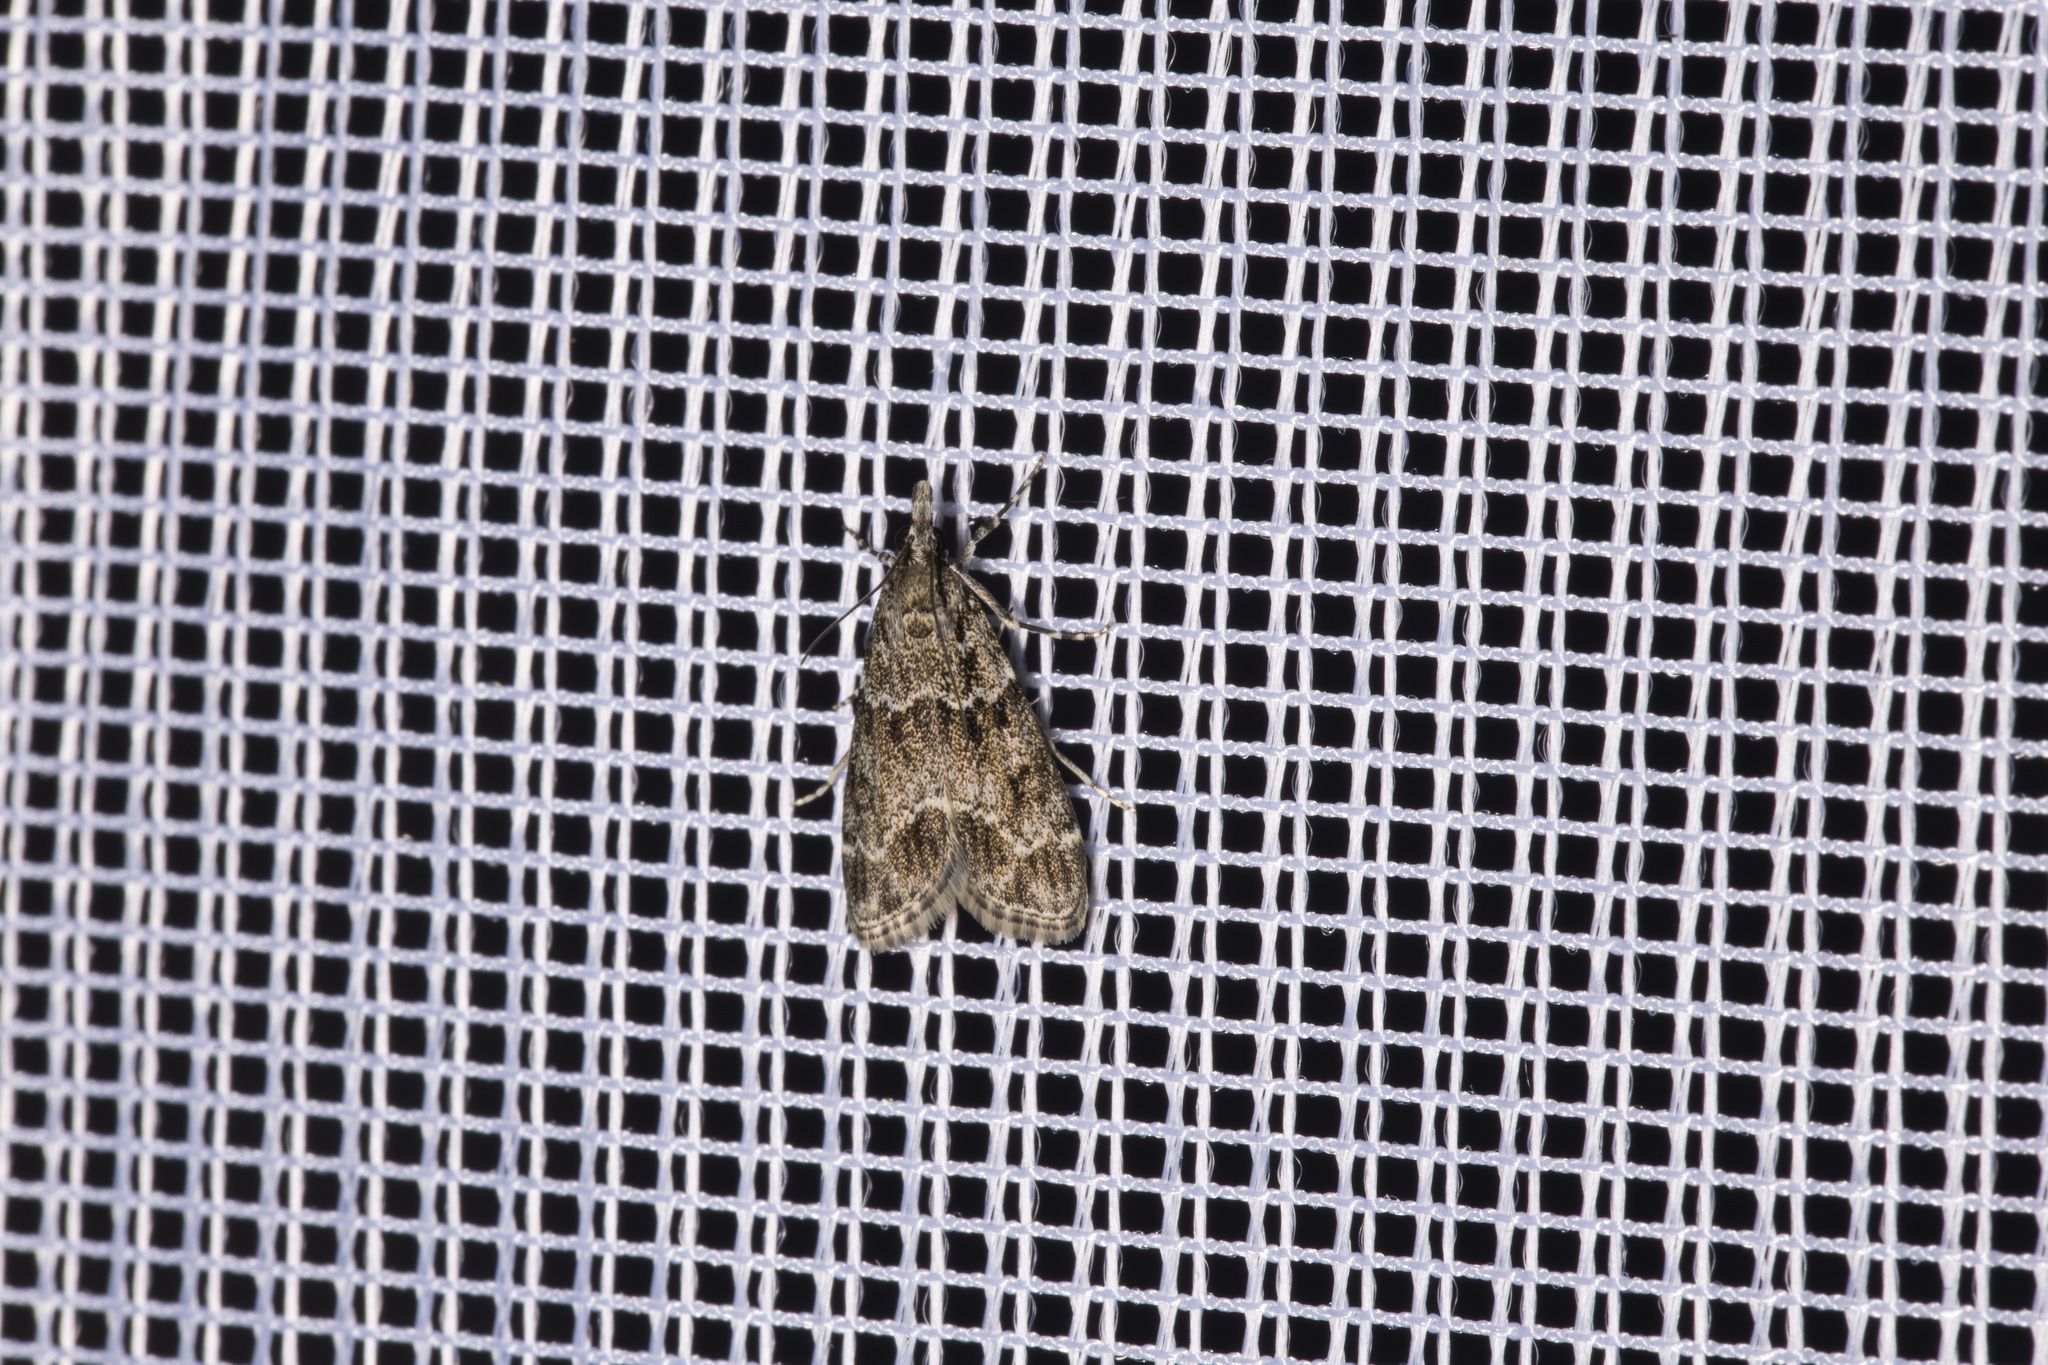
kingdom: Animalia
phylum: Arthropoda
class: Insecta
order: Lepidoptera
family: Crambidae
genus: Eudonia
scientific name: Eudonia mercurella
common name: Small grey
